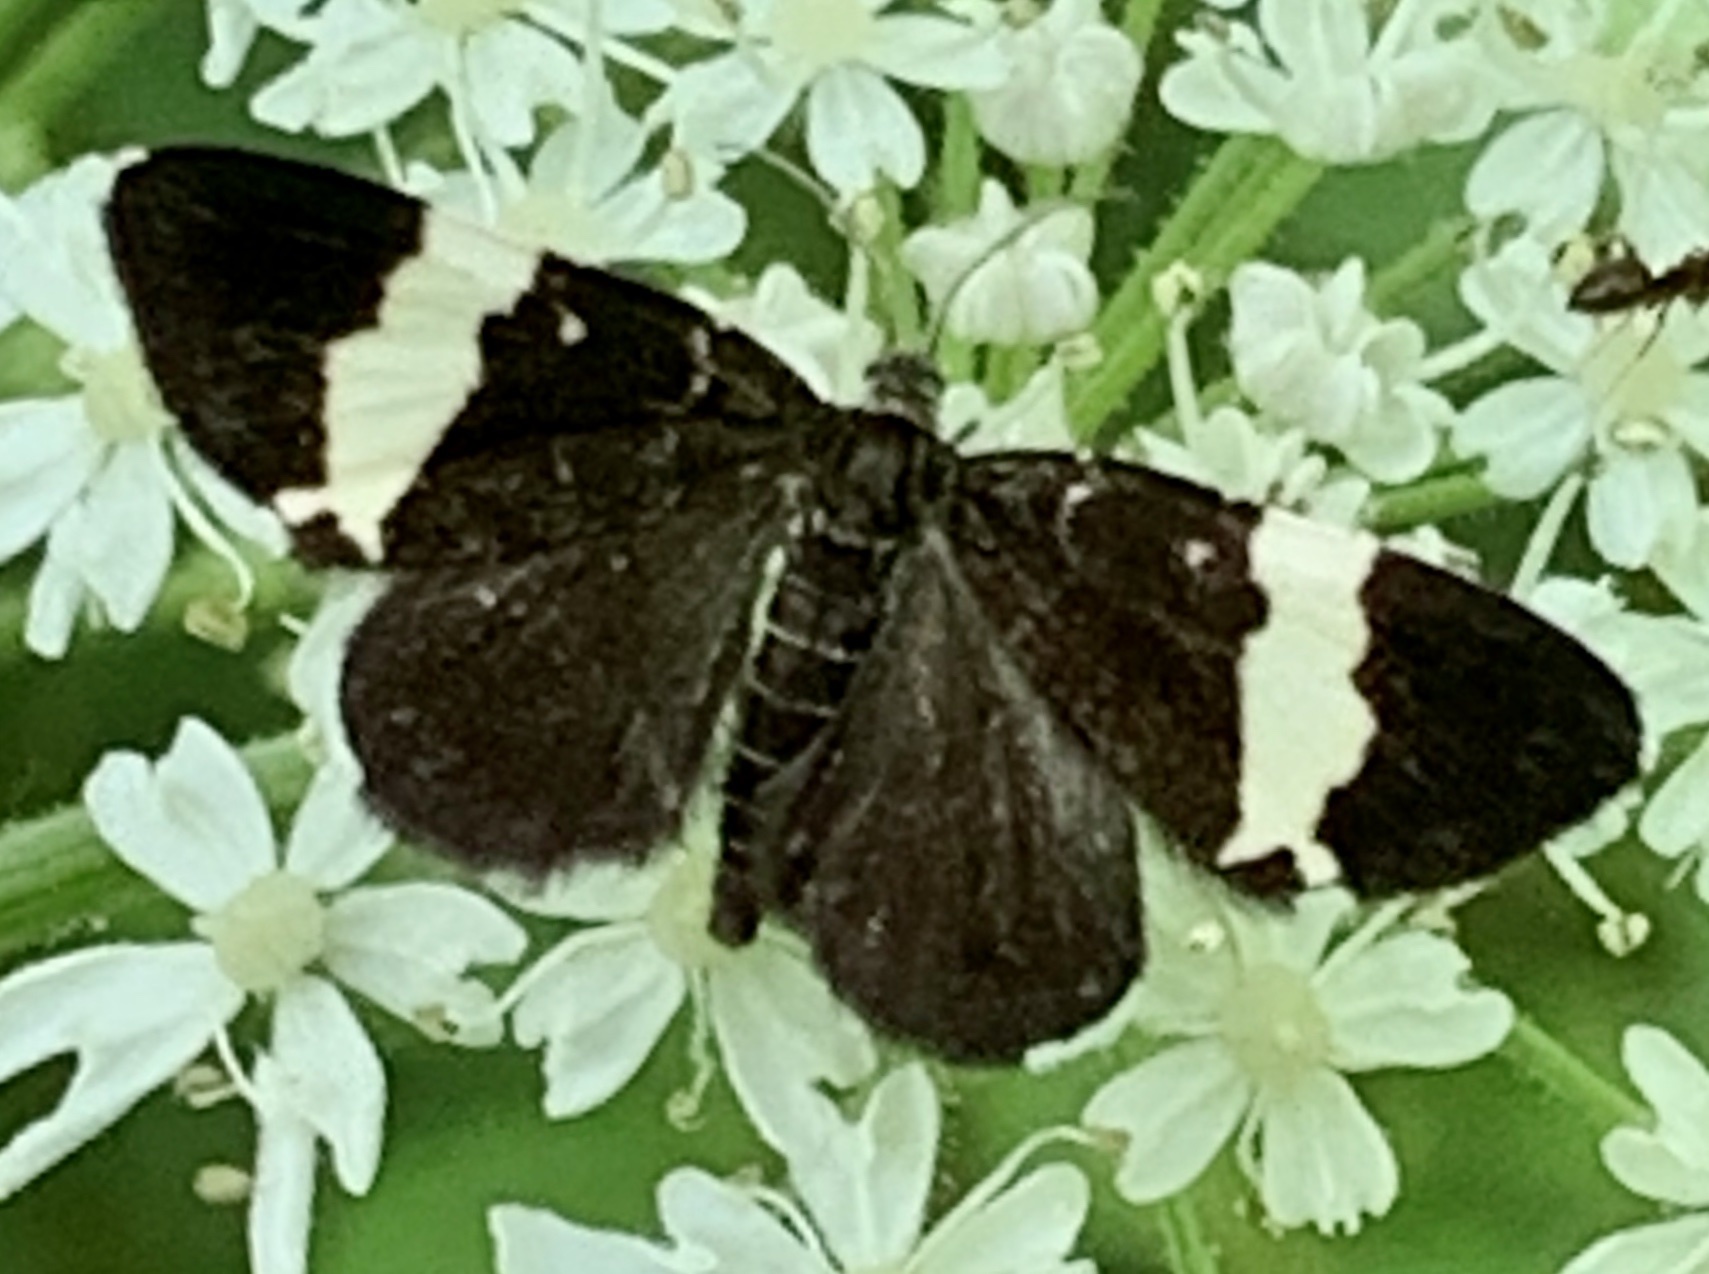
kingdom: Animalia
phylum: Arthropoda
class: Insecta
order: Lepidoptera
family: Geometridae
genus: Trichodezia
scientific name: Trichodezia albovittata
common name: White striped black
